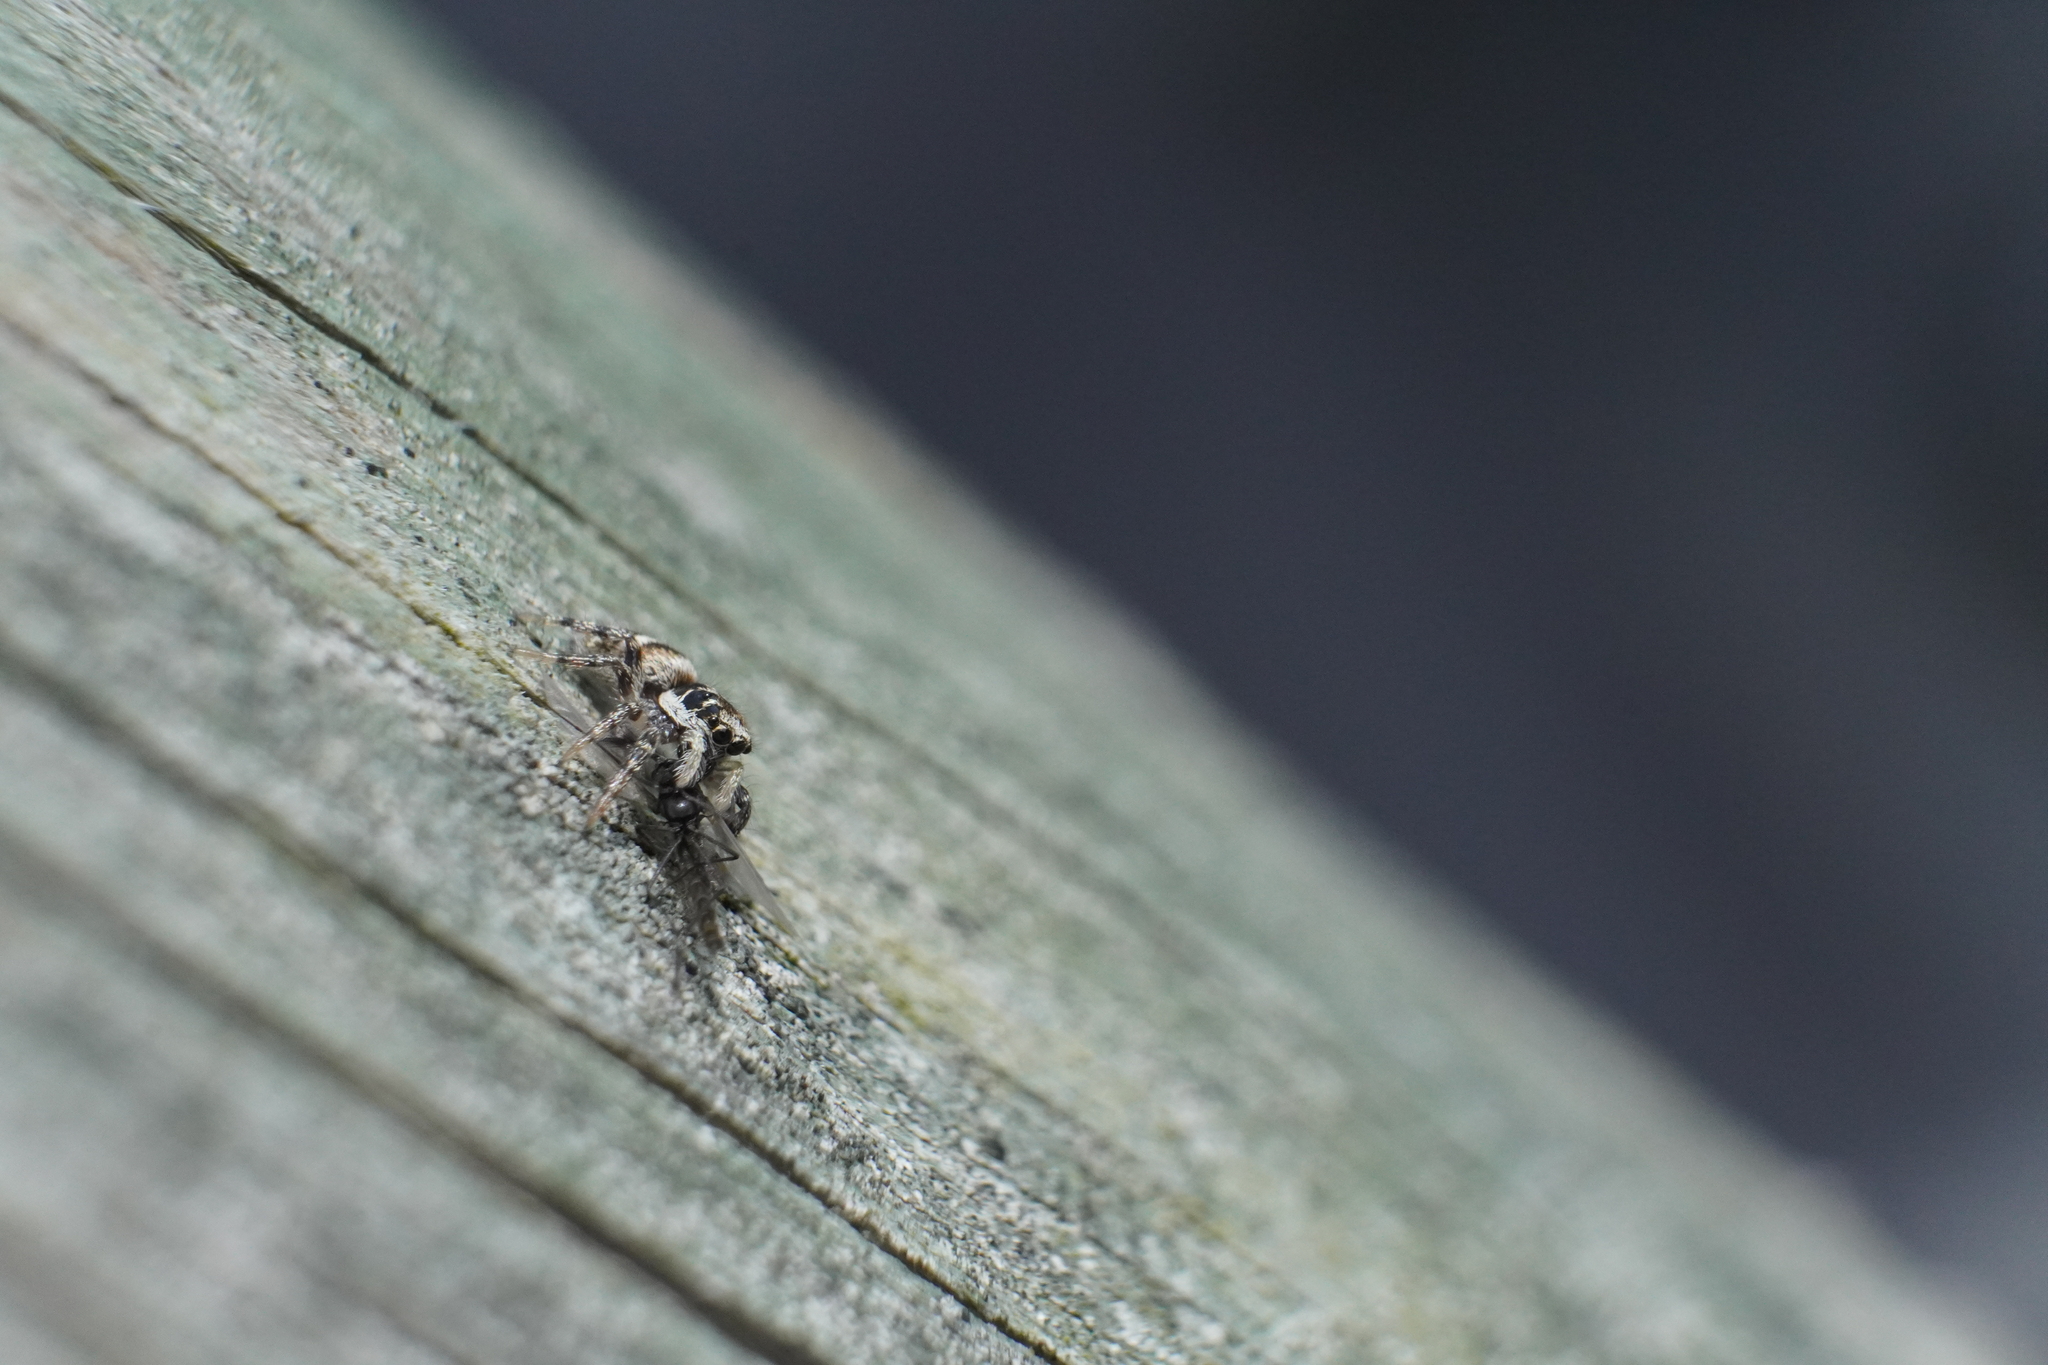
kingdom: Animalia
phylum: Arthropoda
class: Arachnida
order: Araneae
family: Salticidae
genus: Salticus
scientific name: Salticus scenicus
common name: Zebra jumper
